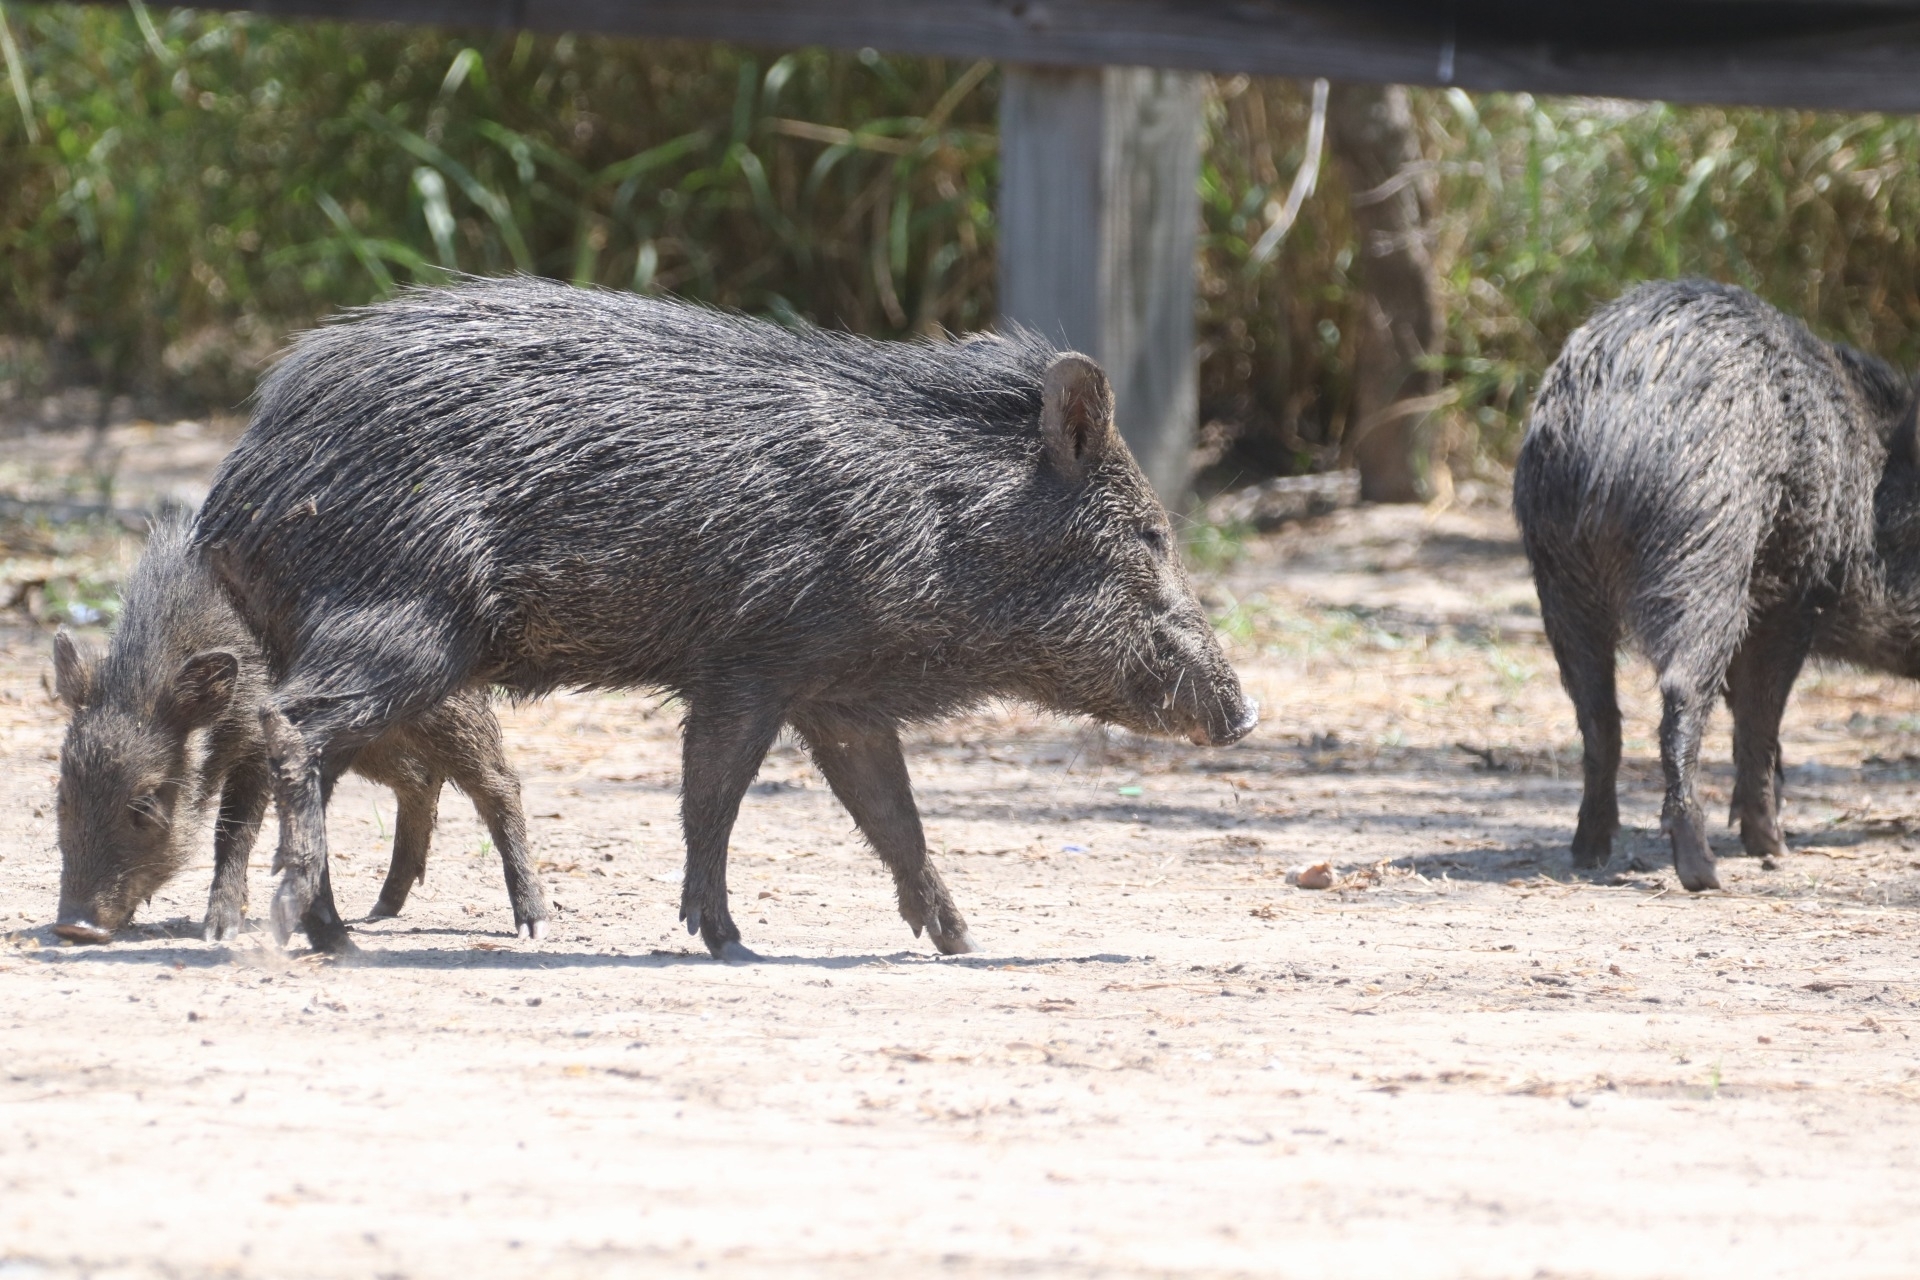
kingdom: Animalia
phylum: Chordata
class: Mammalia
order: Artiodactyla
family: Tayassuidae
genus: Pecari
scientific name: Pecari tajacu
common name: Collared peccary
